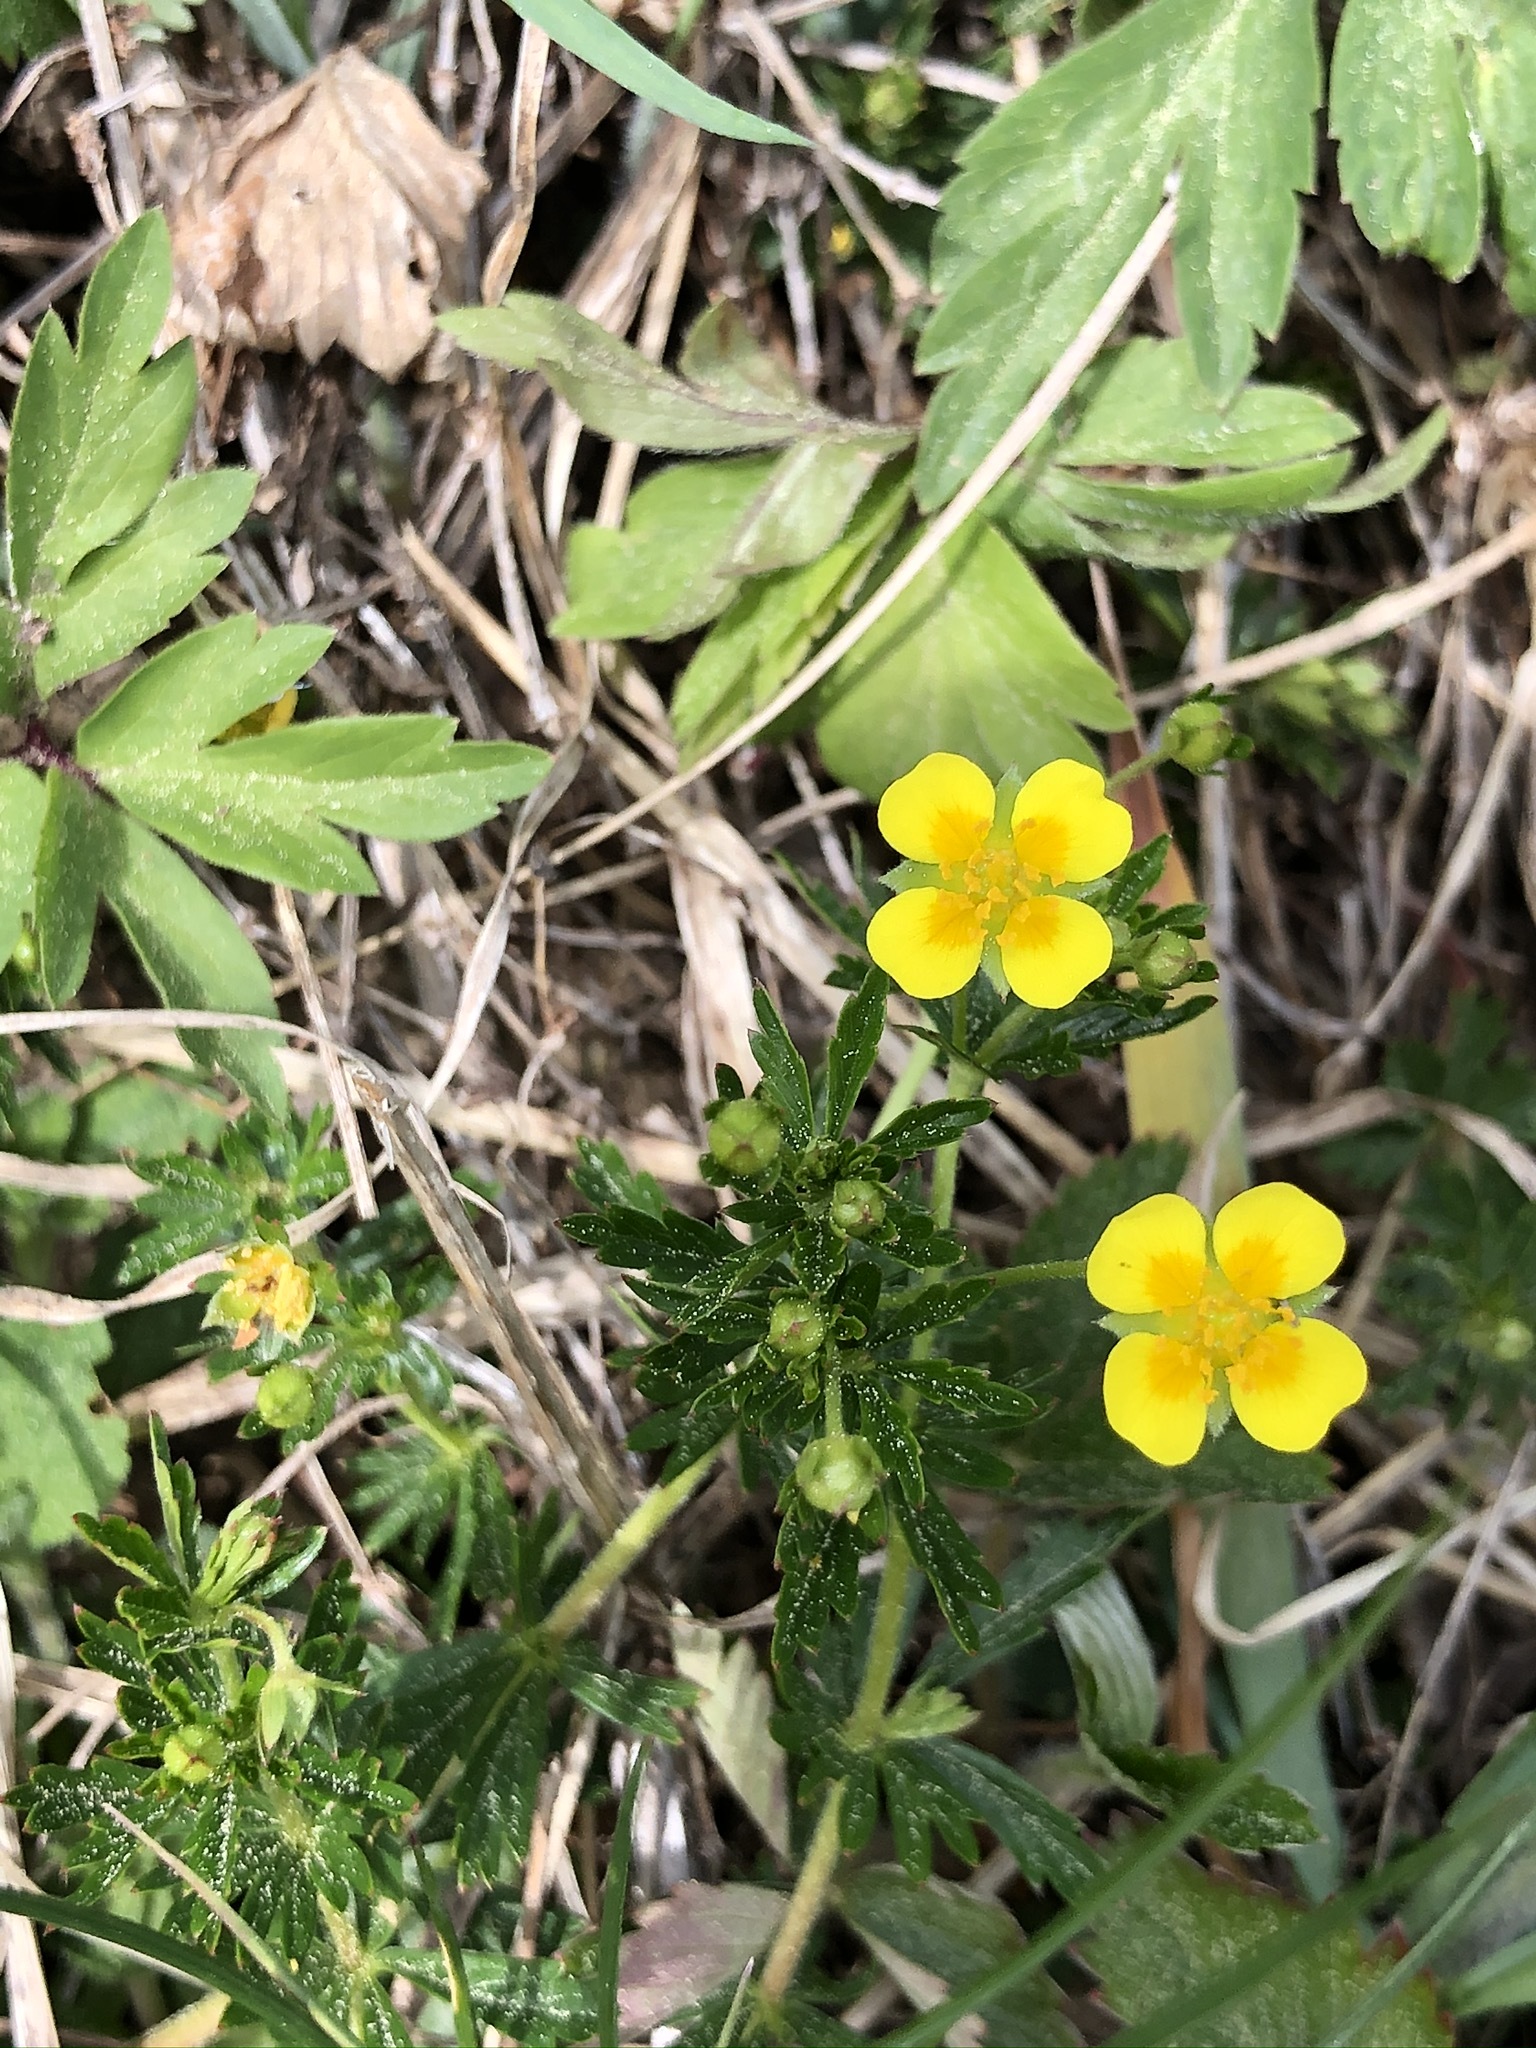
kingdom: Plantae
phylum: Tracheophyta
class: Magnoliopsida
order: Rosales
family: Rosaceae
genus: Potentilla
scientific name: Potentilla erecta
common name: Tormentil
